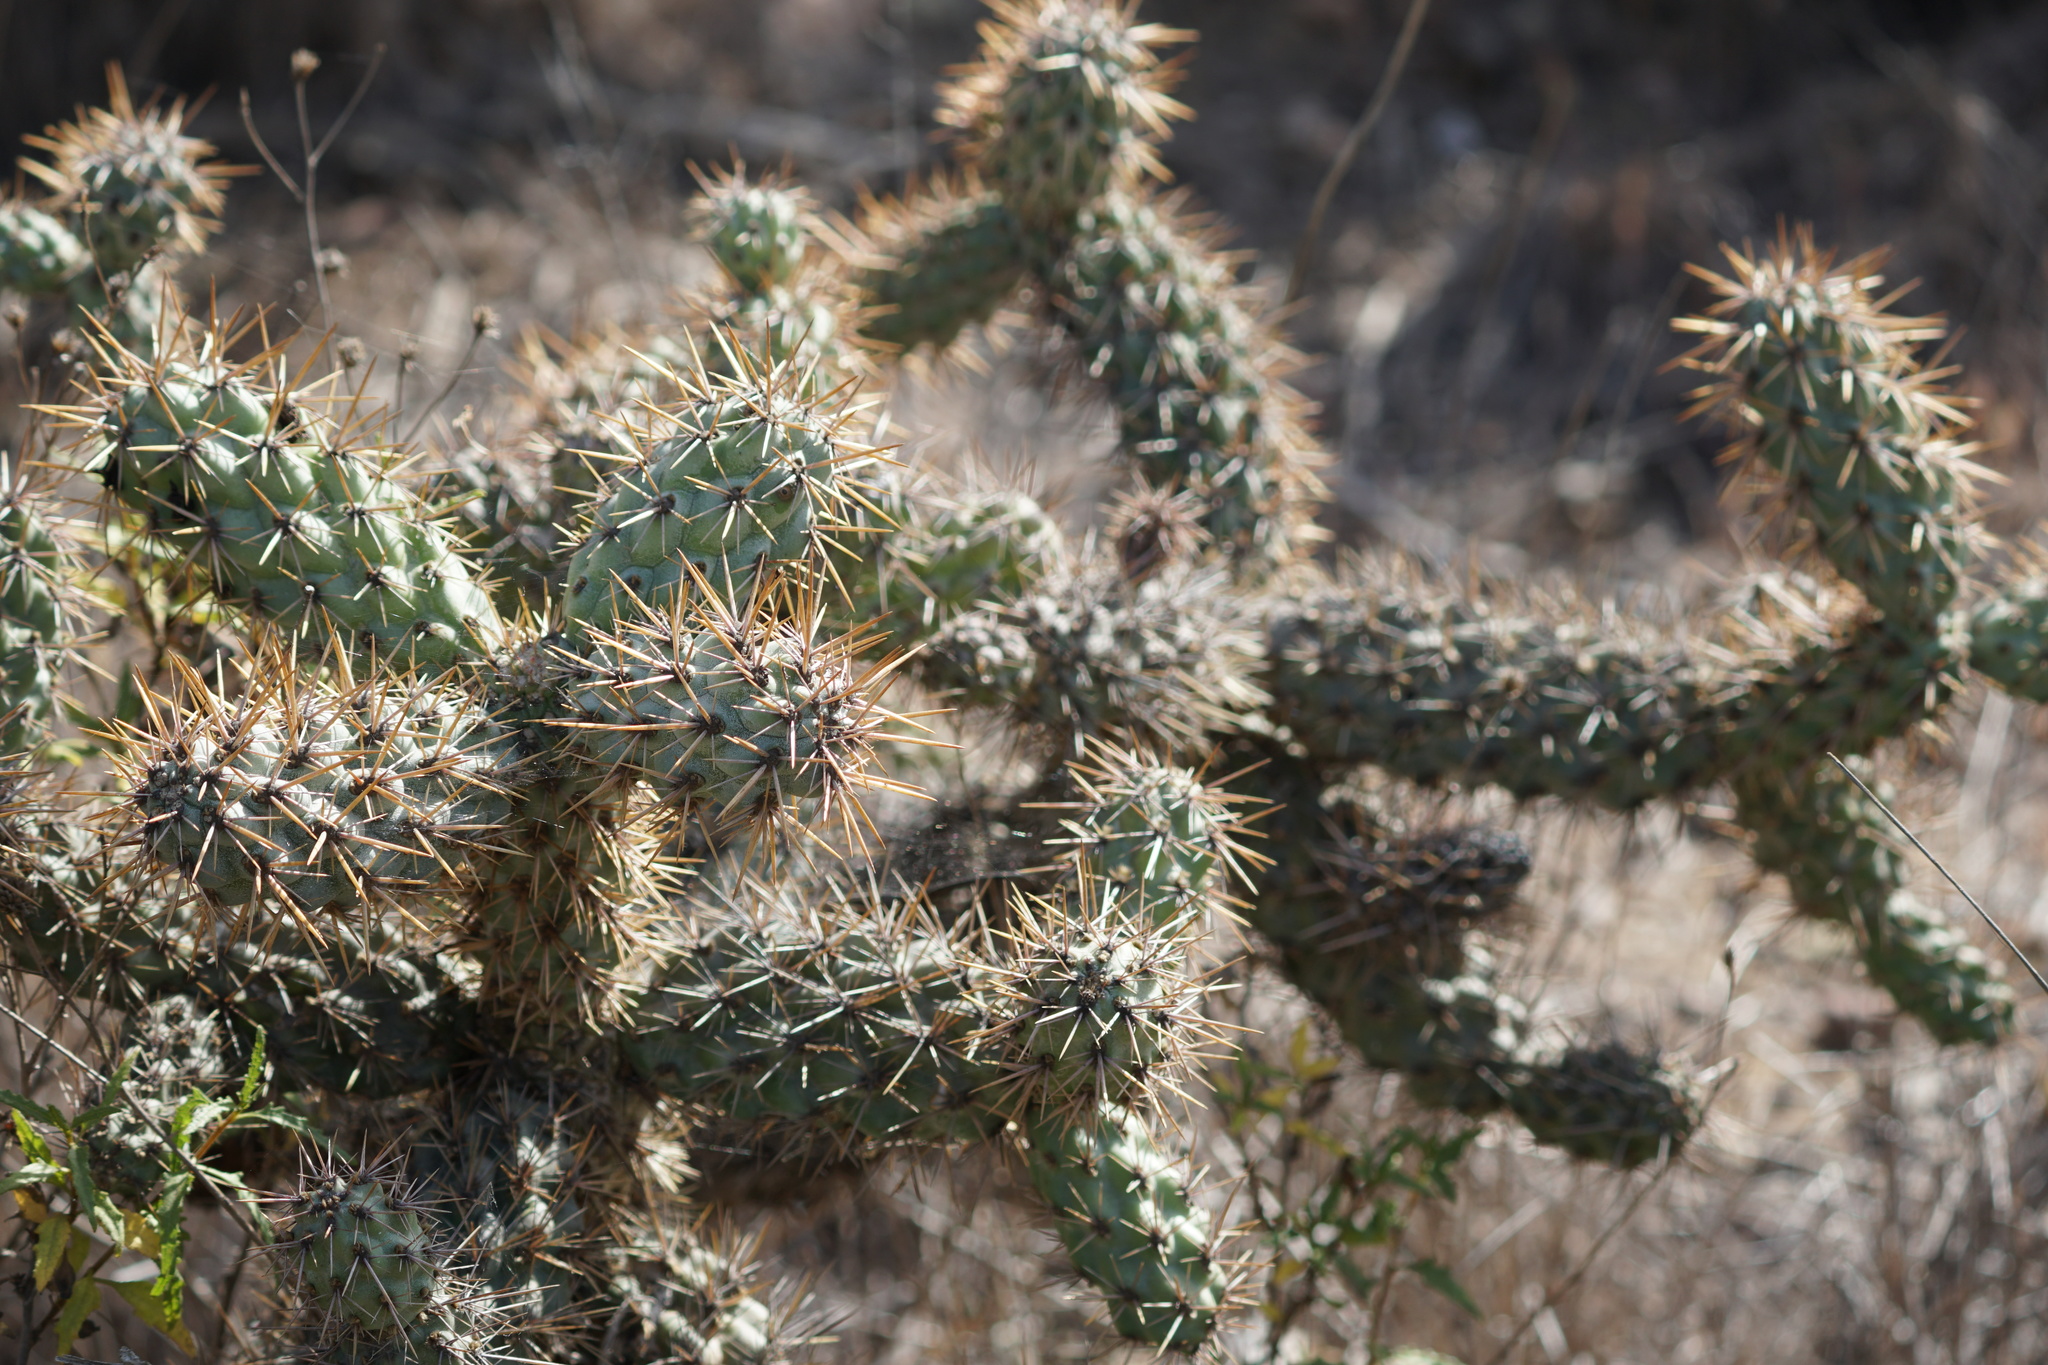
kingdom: Plantae
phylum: Tracheophyta
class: Magnoliopsida
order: Caryophyllales
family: Cactaceae
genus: Cylindropuntia
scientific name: Cylindropuntia prolifera
